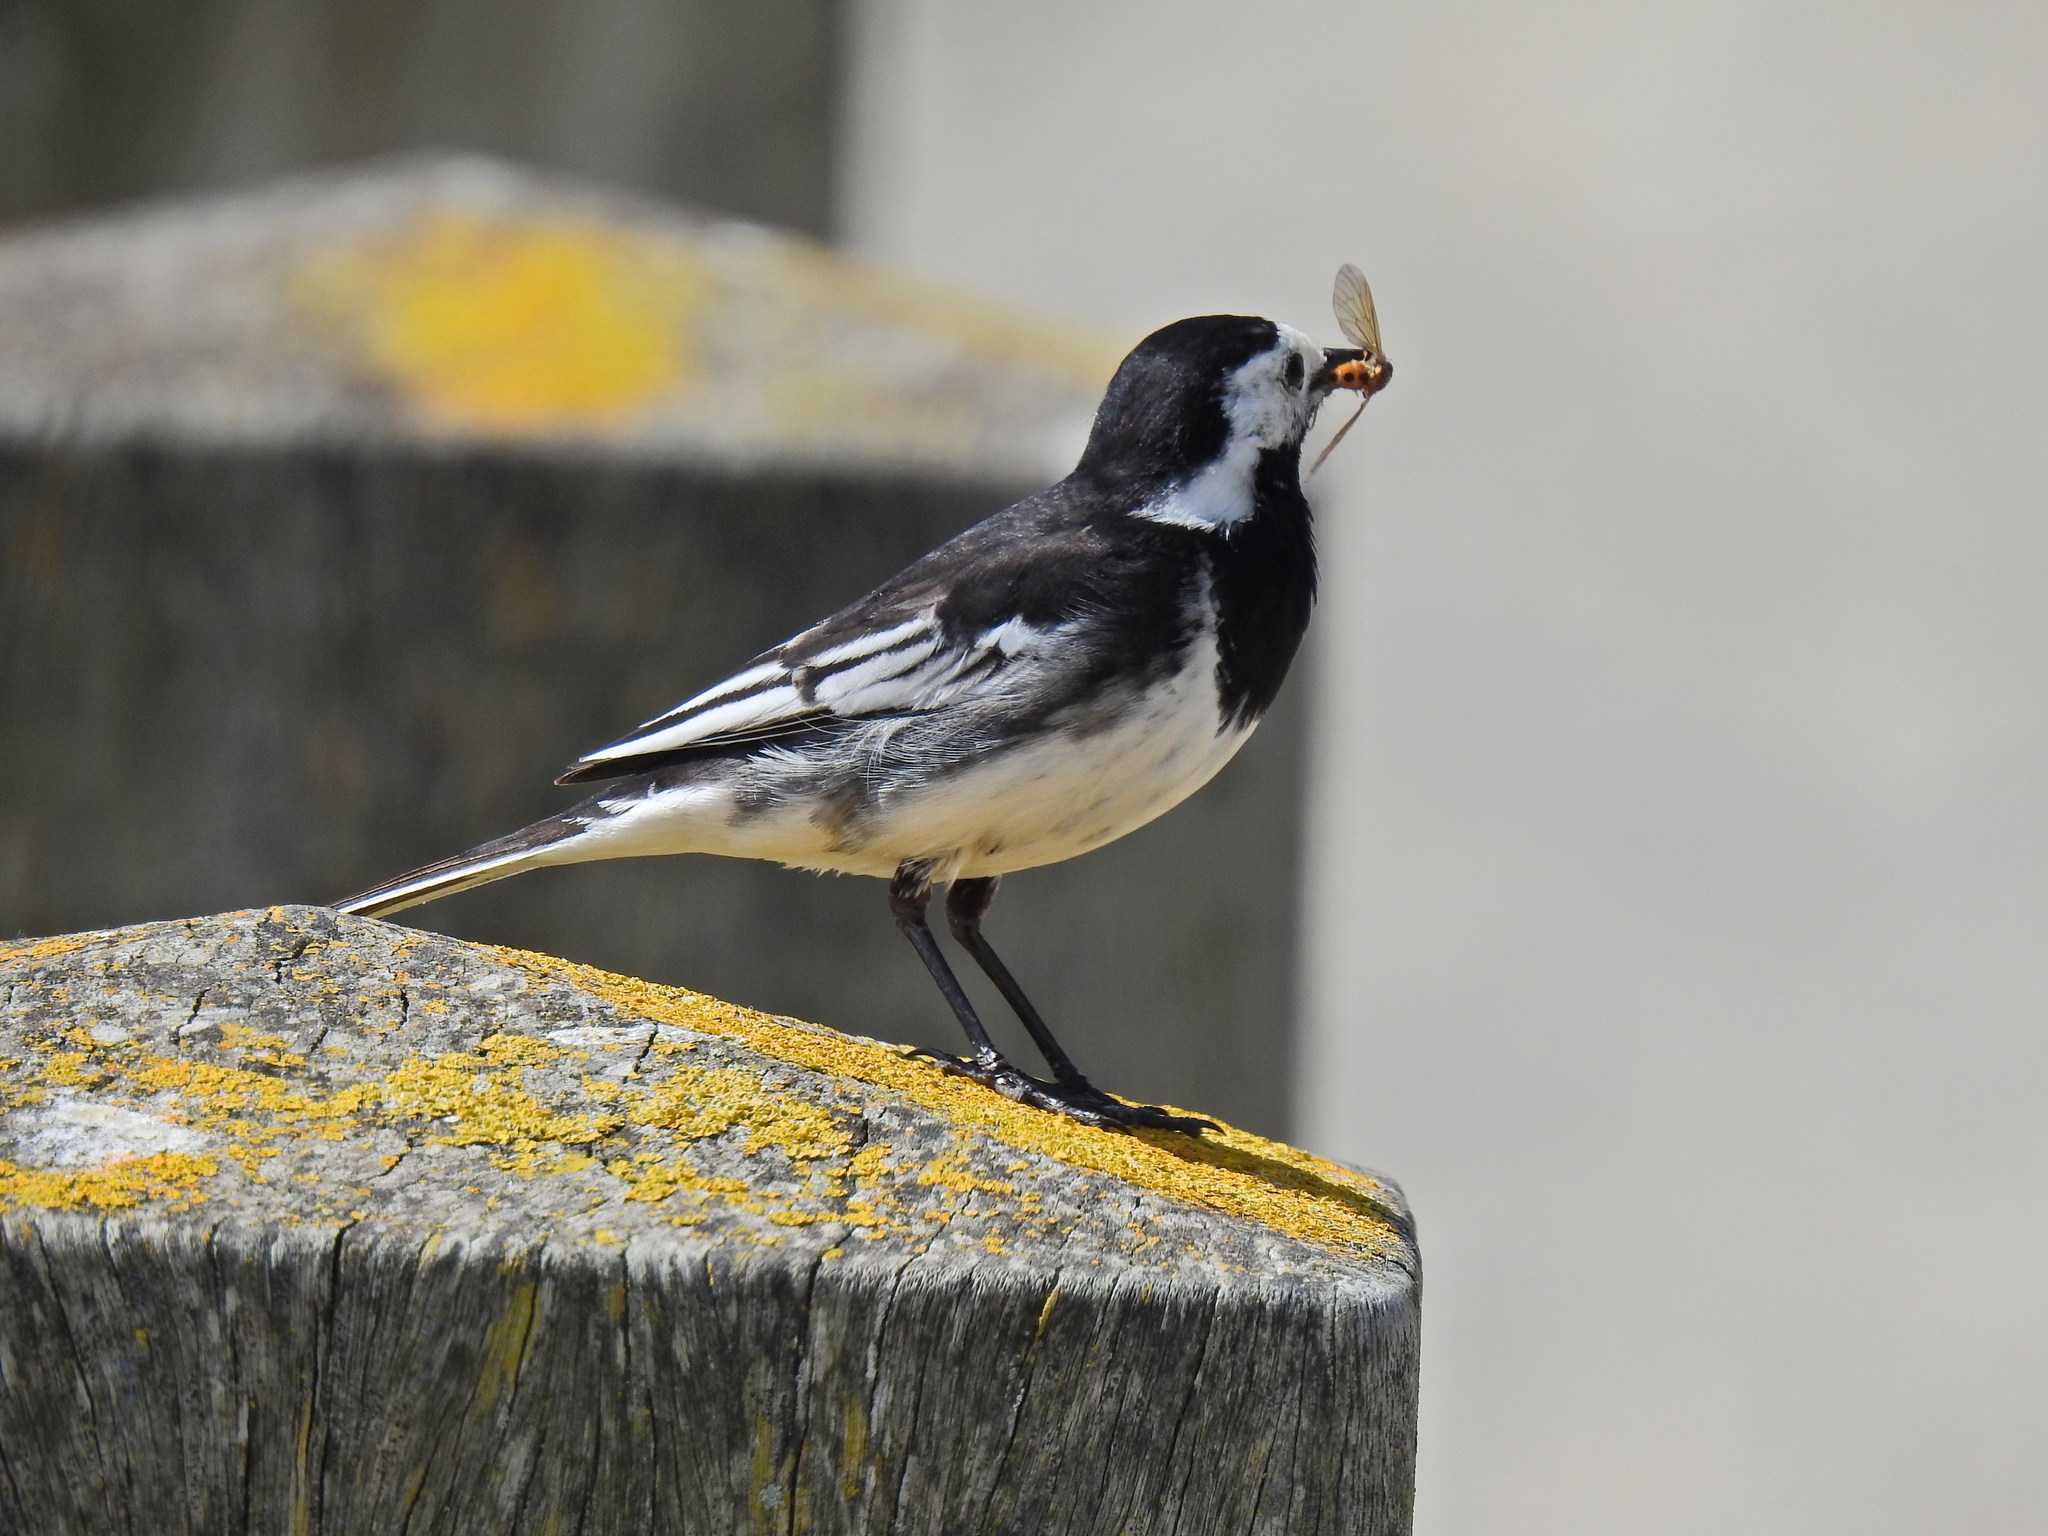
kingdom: Animalia
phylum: Chordata
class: Aves
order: Passeriformes
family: Motacillidae
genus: Motacilla
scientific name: Motacilla alba
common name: White wagtail
